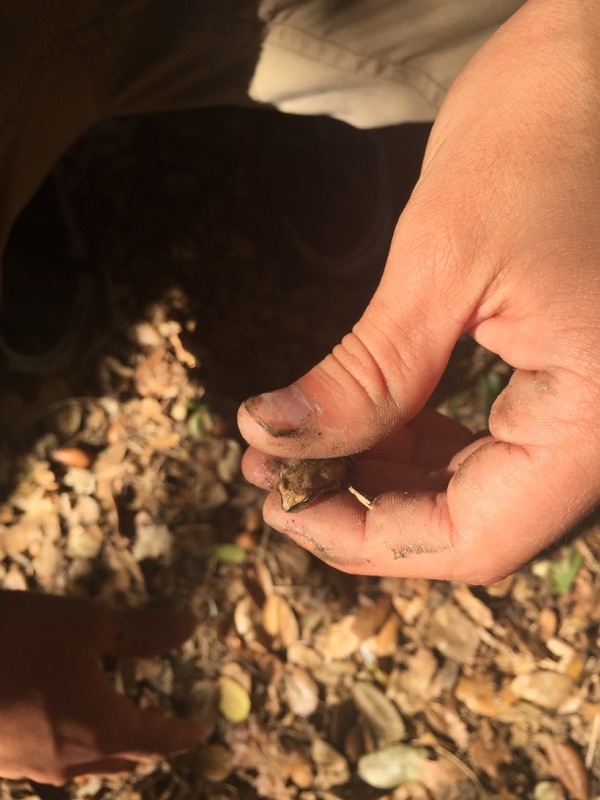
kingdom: Animalia
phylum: Chordata
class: Amphibia
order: Anura
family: Hylidae
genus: Pseudacris
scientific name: Pseudacris regilla
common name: Pacific chorus frog
